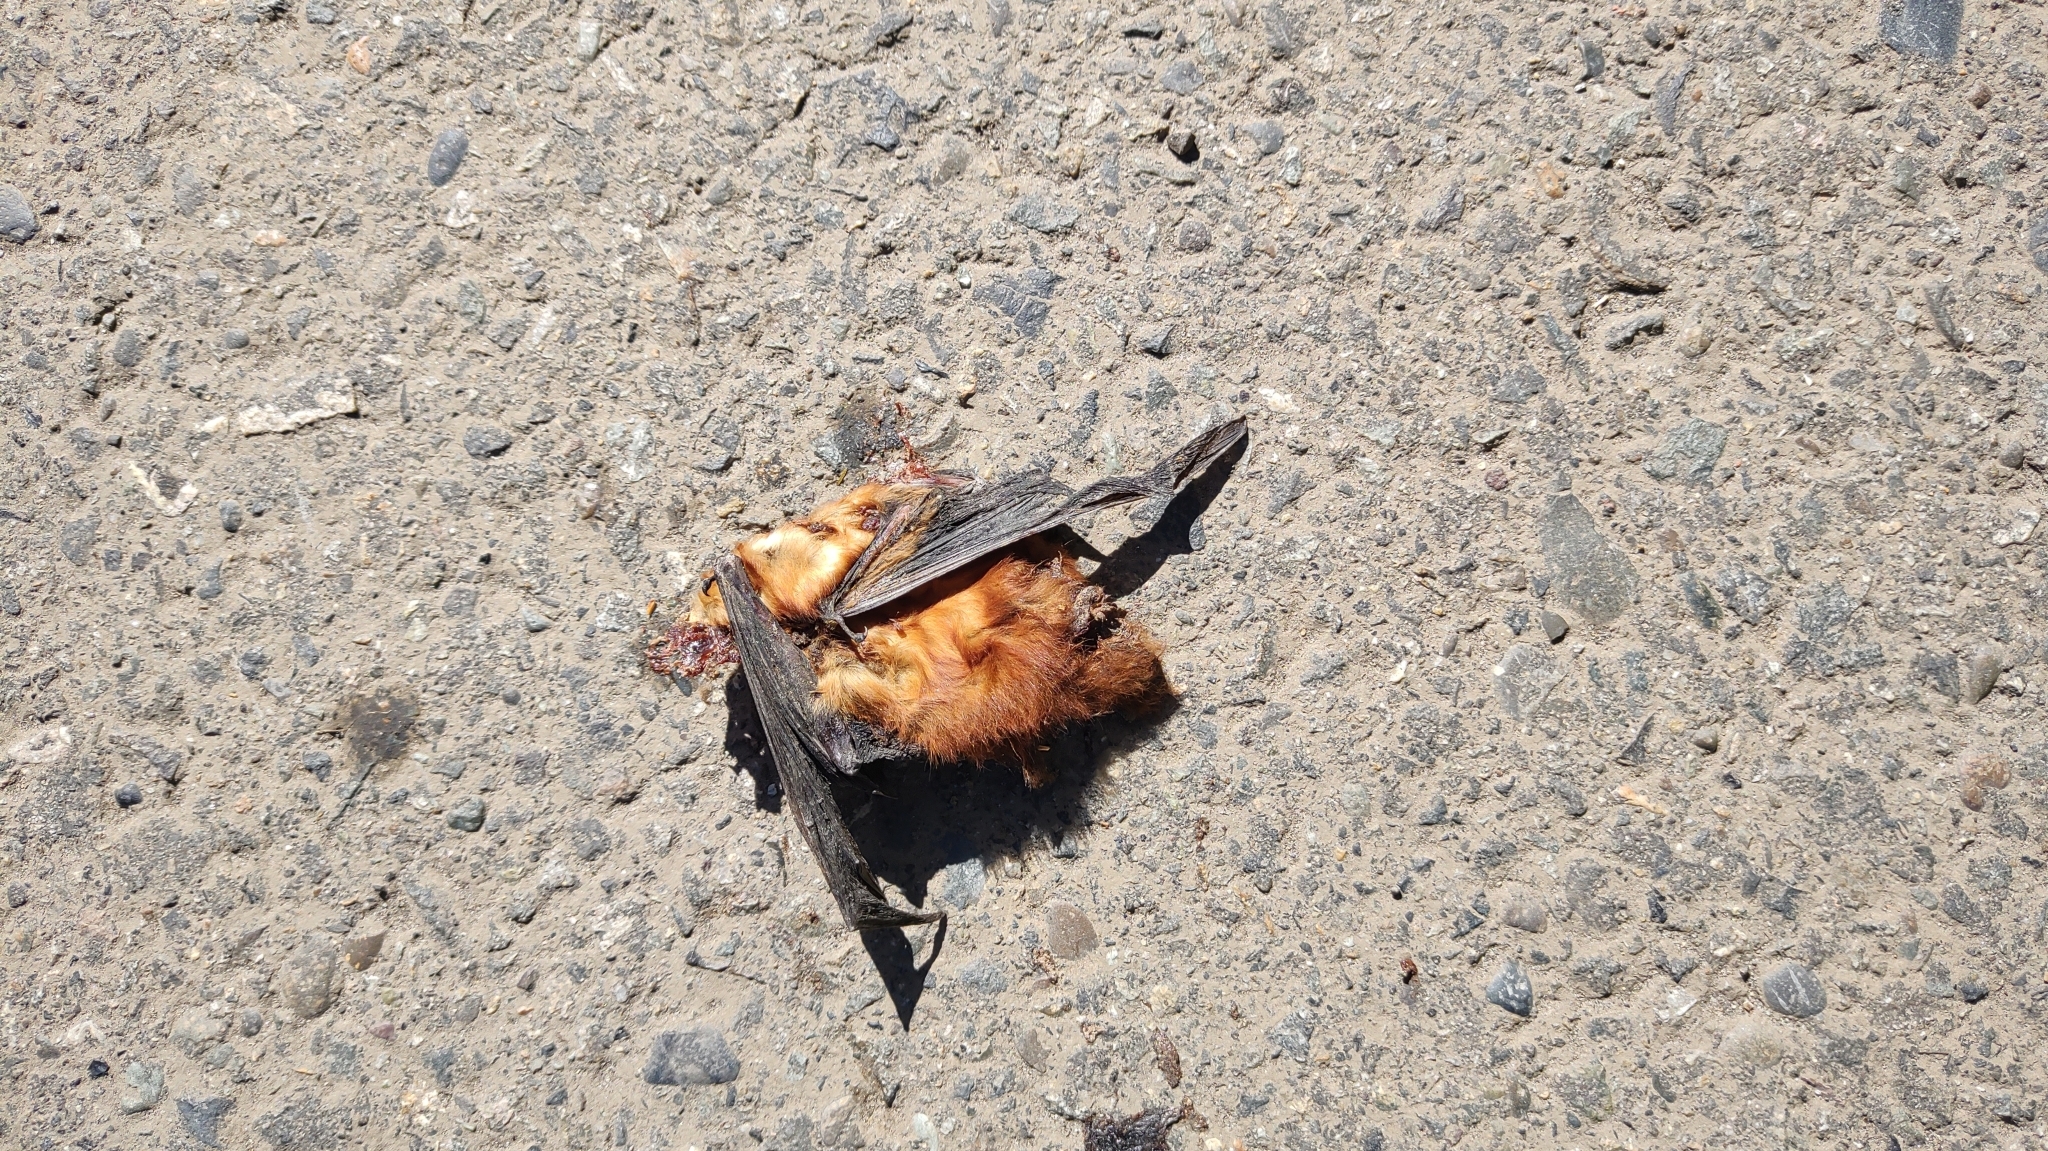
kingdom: Animalia
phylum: Chordata
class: Mammalia
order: Chiroptera
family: Vespertilionidae
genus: Lasiurus
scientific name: Lasiurus varius
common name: Cinnamon red bat
